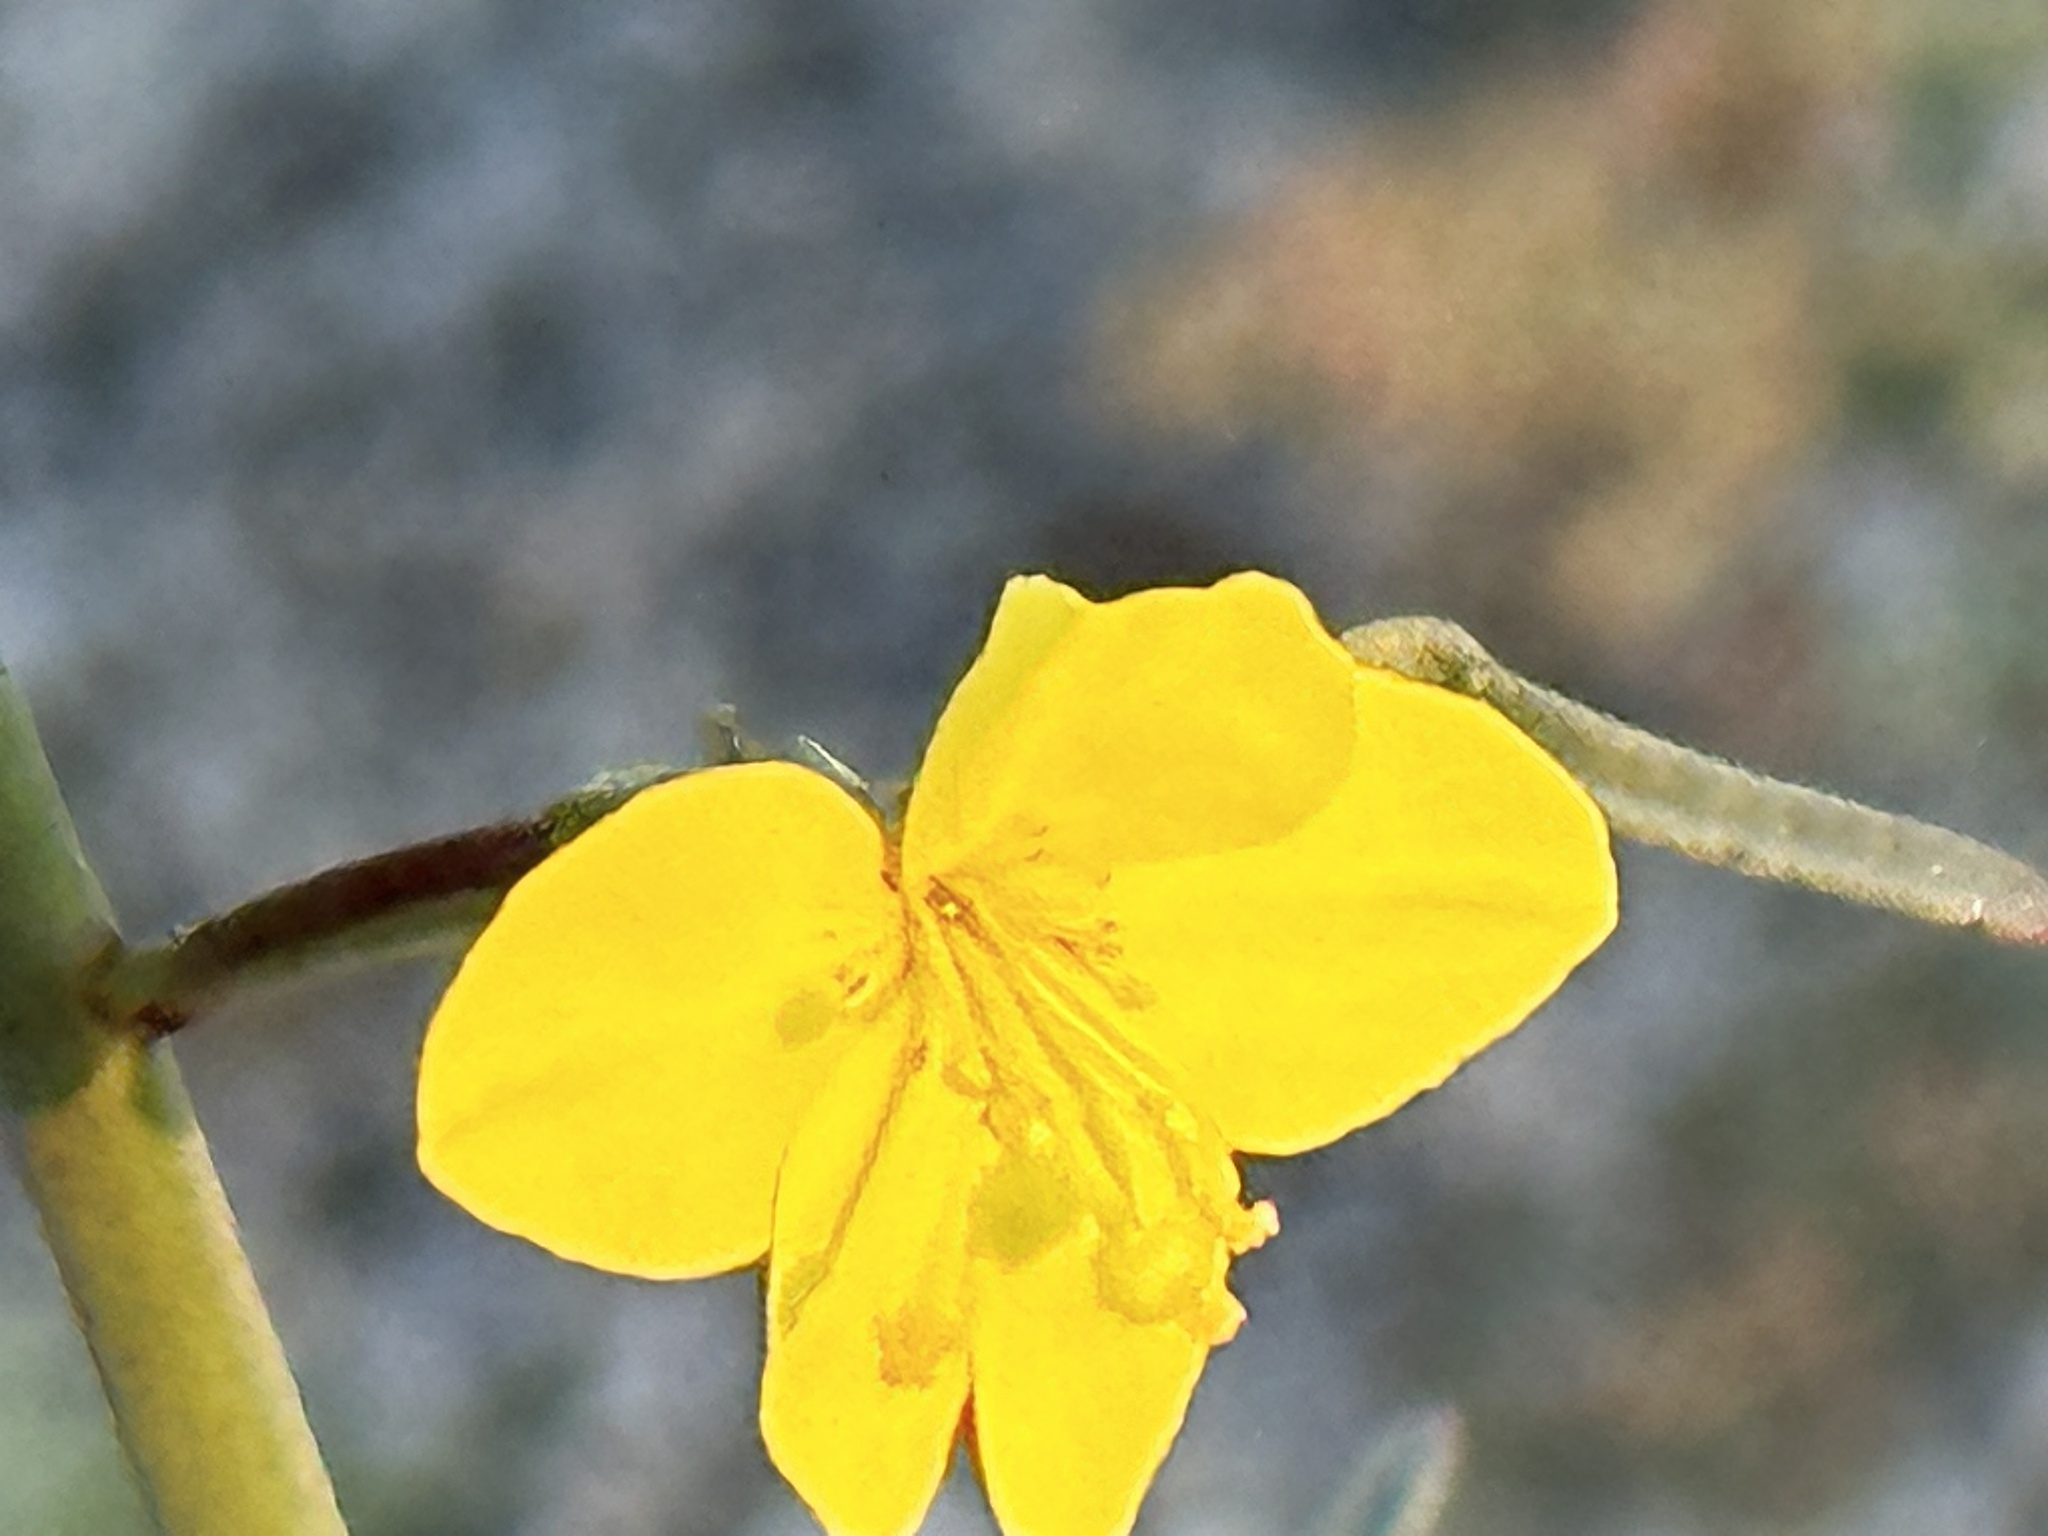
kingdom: Plantae
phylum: Tracheophyta
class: Magnoliopsida
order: Myrtales
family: Onagraceae
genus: Eulobus
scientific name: Eulobus californicus
